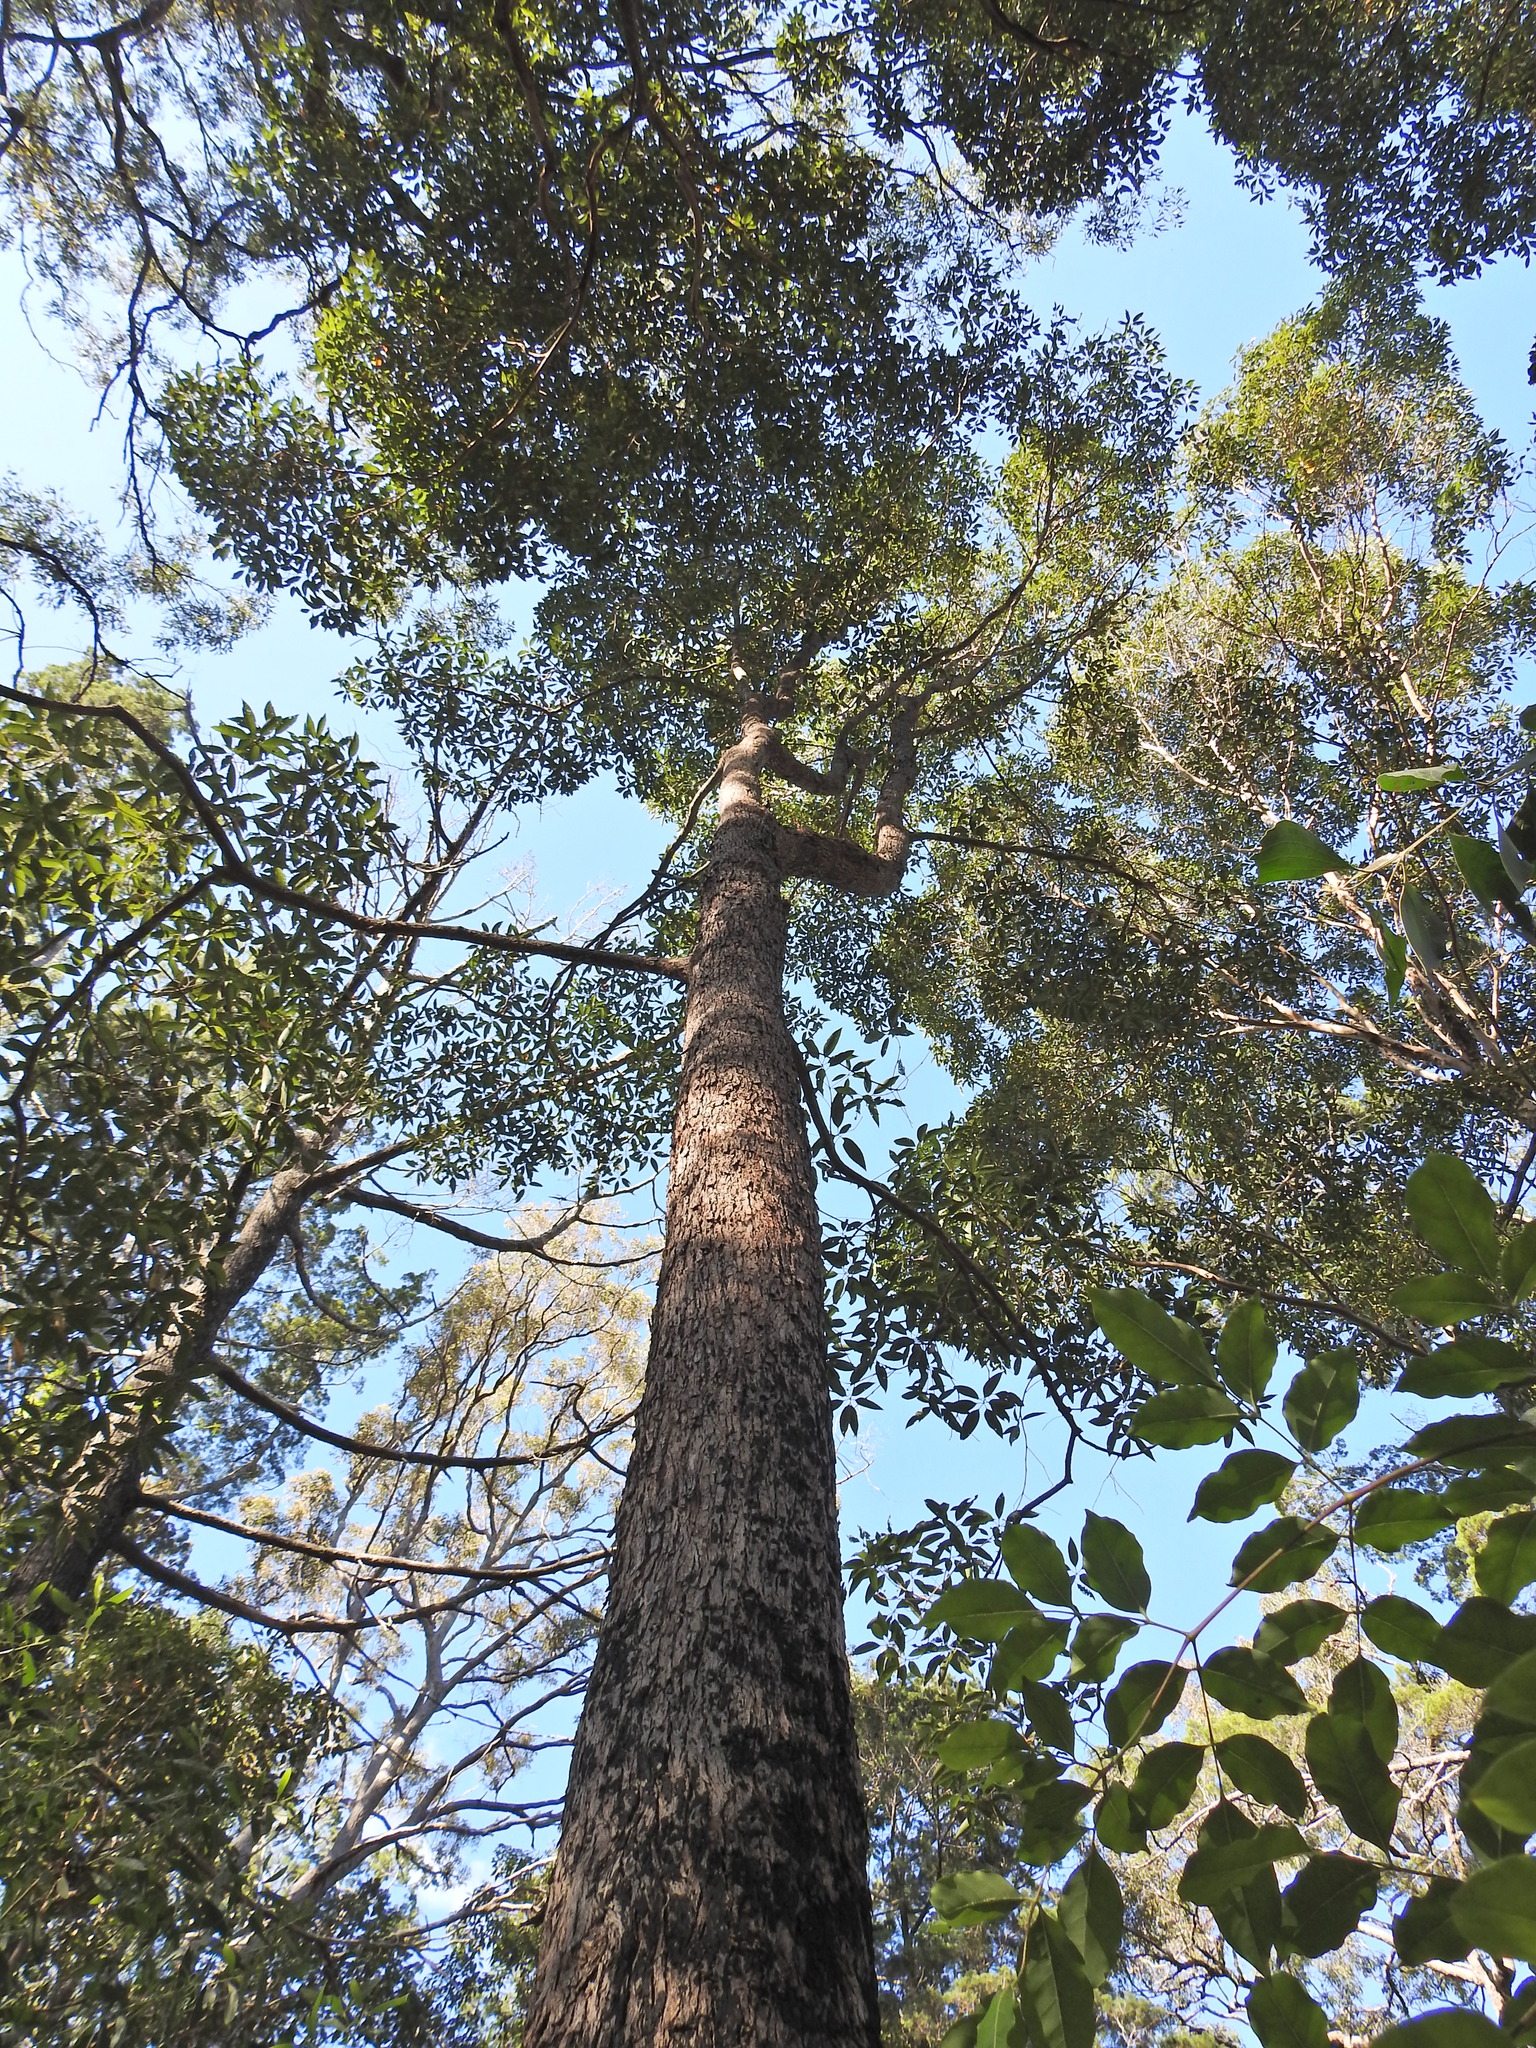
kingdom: Plantae
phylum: Tracheophyta
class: Magnoliopsida
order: Myrtales
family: Myrtaceae
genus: Lophostemon
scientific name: Lophostemon confertus
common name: Brisbane box
